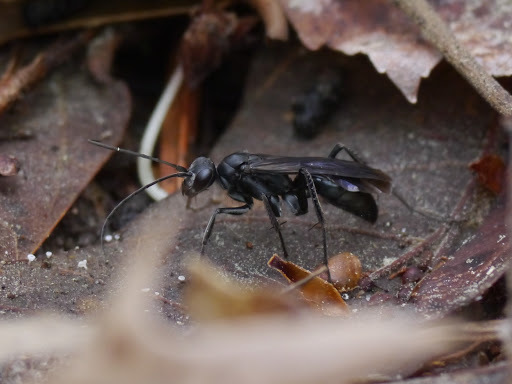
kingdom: Animalia
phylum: Arthropoda
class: Insecta
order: Hymenoptera
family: Pompilidae
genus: Priocnemis
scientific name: Priocnemis minorata
